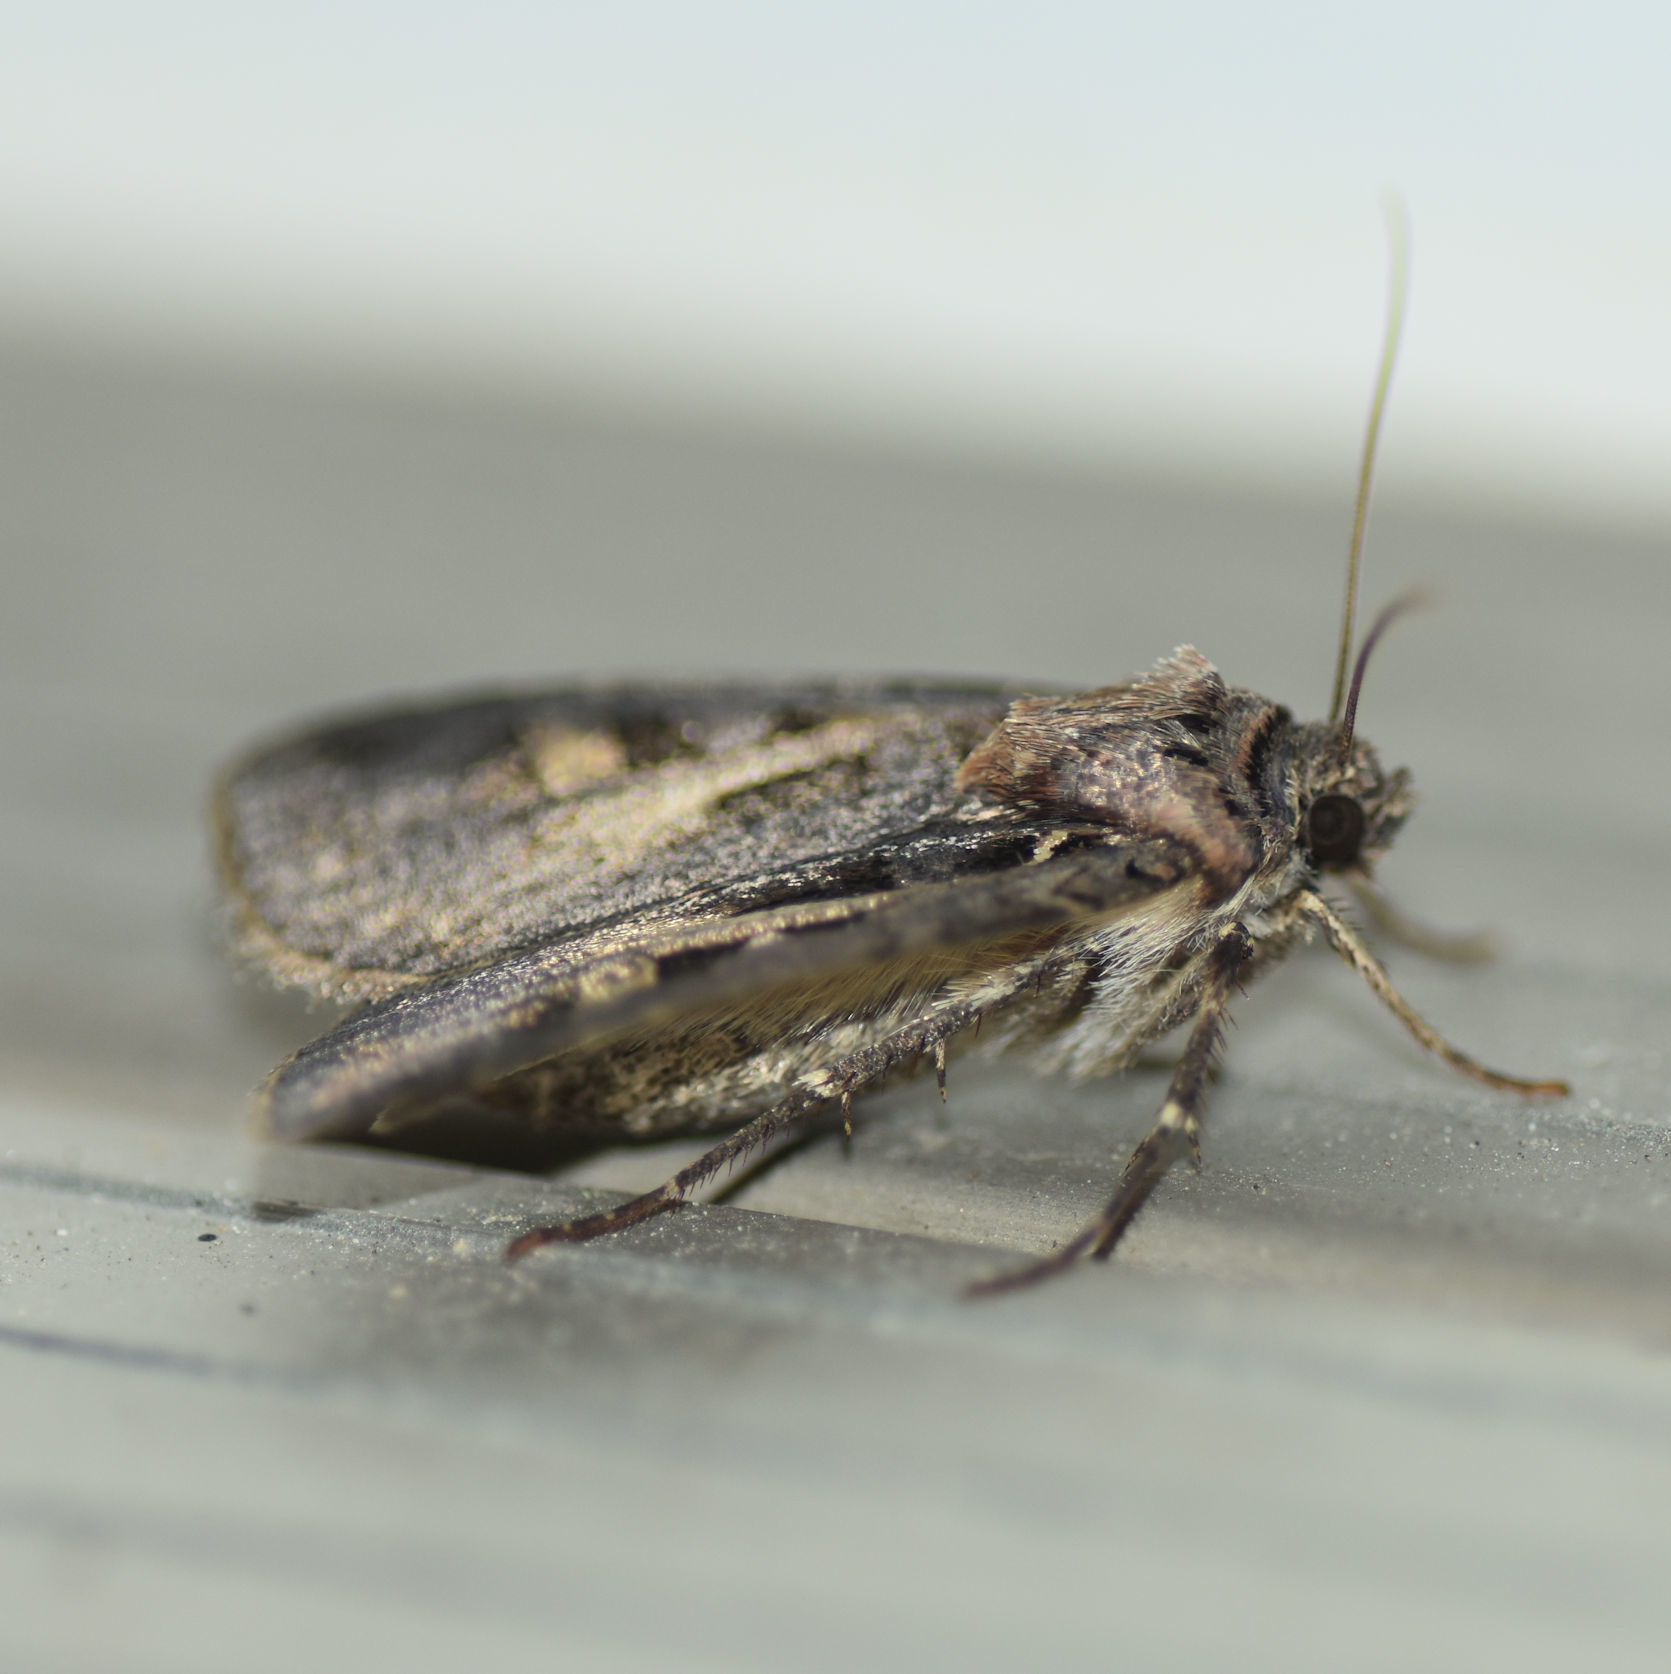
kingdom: Animalia
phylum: Arthropoda
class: Insecta
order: Lepidoptera
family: Noctuidae
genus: Feltia
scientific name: Feltia herilis
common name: Master's dart
